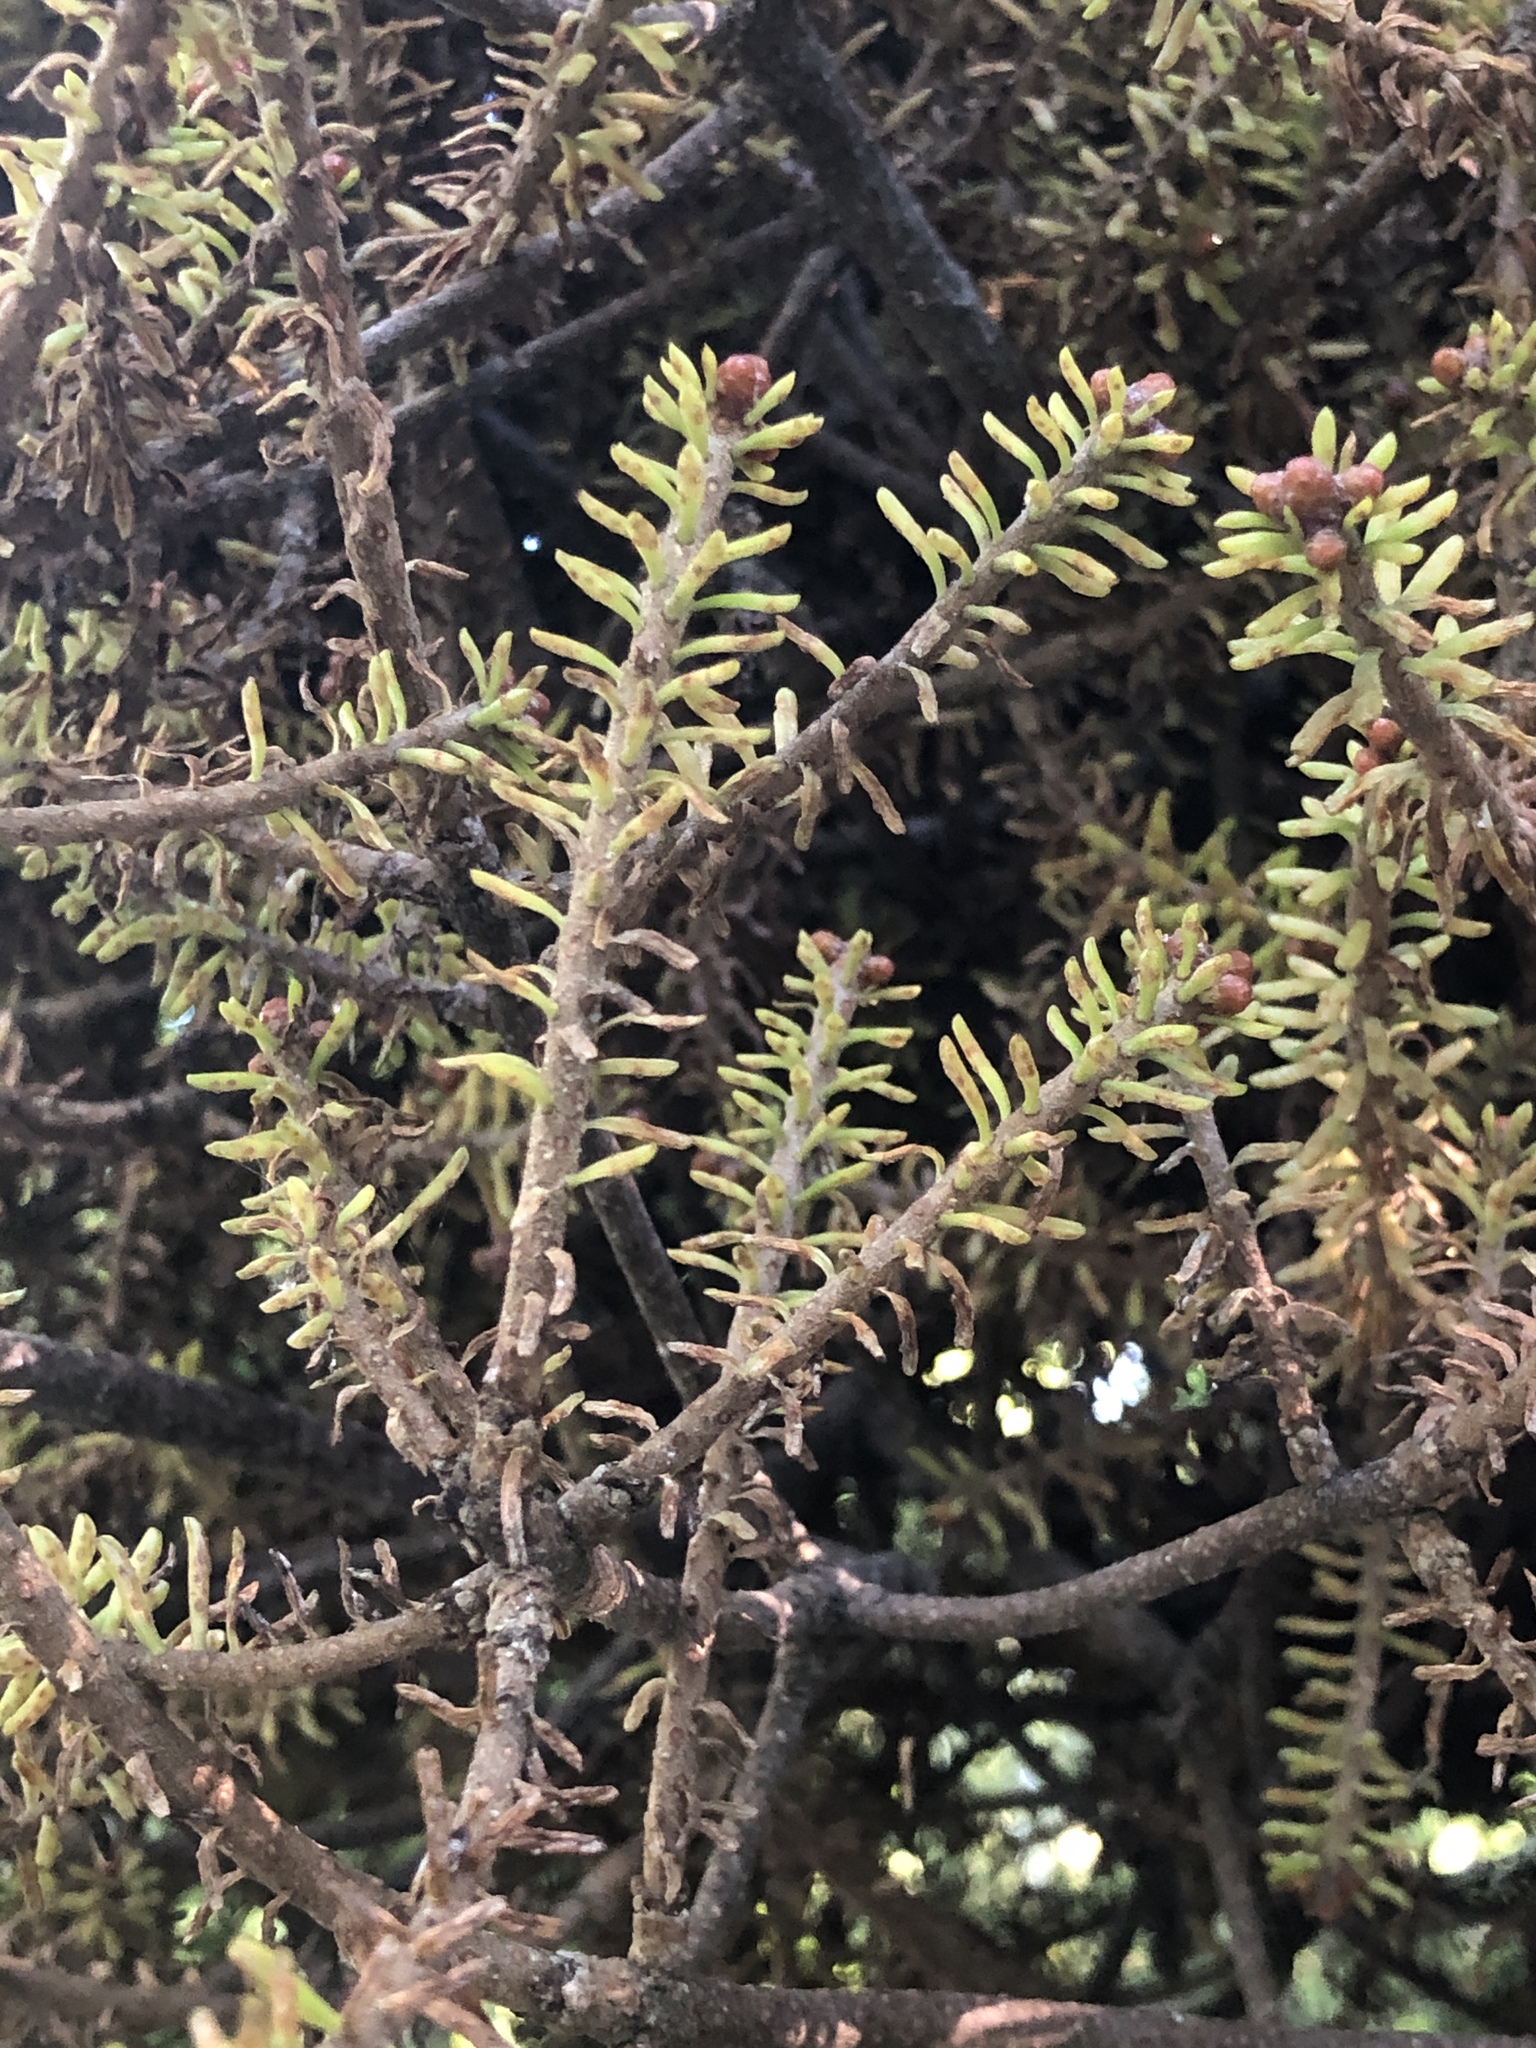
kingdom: Plantae
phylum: Tracheophyta
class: Pinopsida
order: Pinales
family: Pinaceae
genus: Picea
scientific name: Picea mariana
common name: Black spruce
